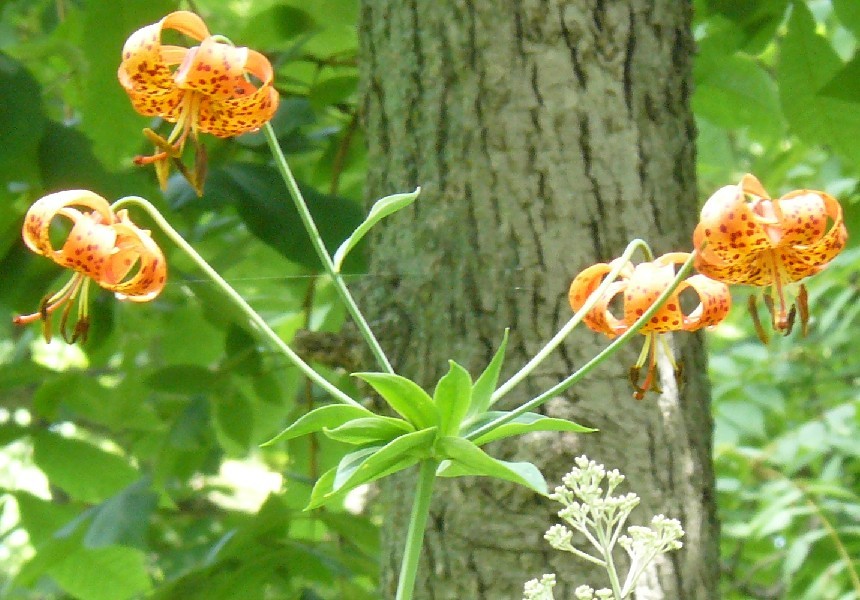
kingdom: Plantae
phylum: Tracheophyta
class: Liliopsida
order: Liliales
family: Liliaceae
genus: Lilium
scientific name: Lilium michiganense
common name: Michigan lily
